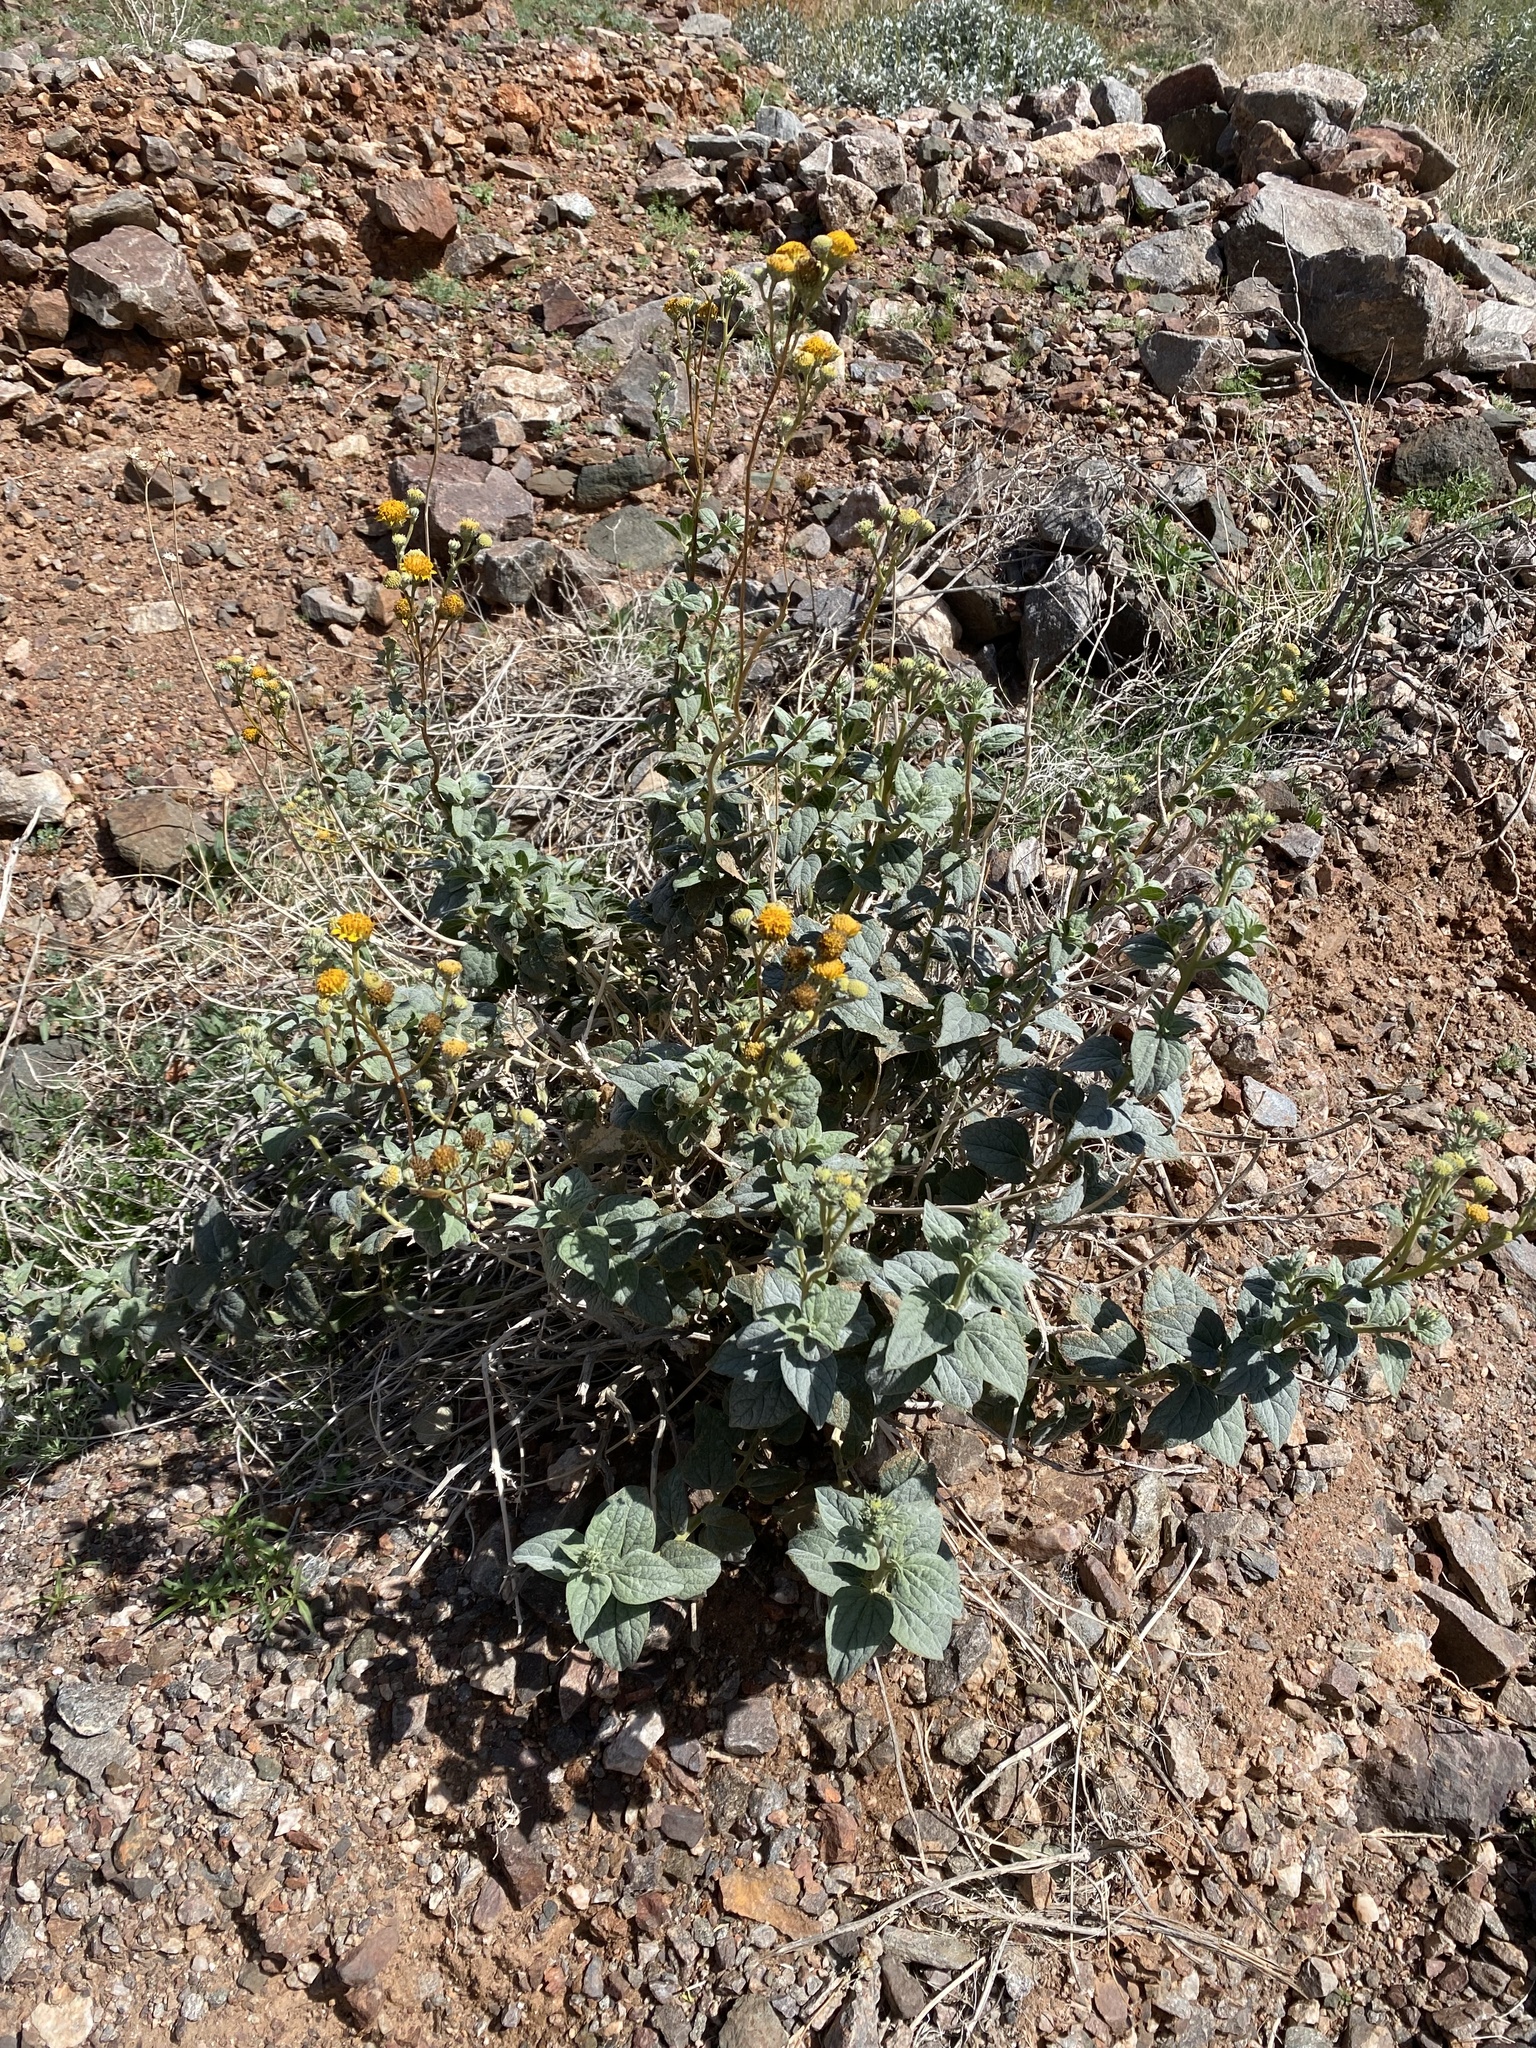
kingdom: Plantae
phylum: Tracheophyta
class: Magnoliopsida
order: Asterales
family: Asteraceae
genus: Bahiopsis
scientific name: Bahiopsis reticulata
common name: Death valley goldeneye
